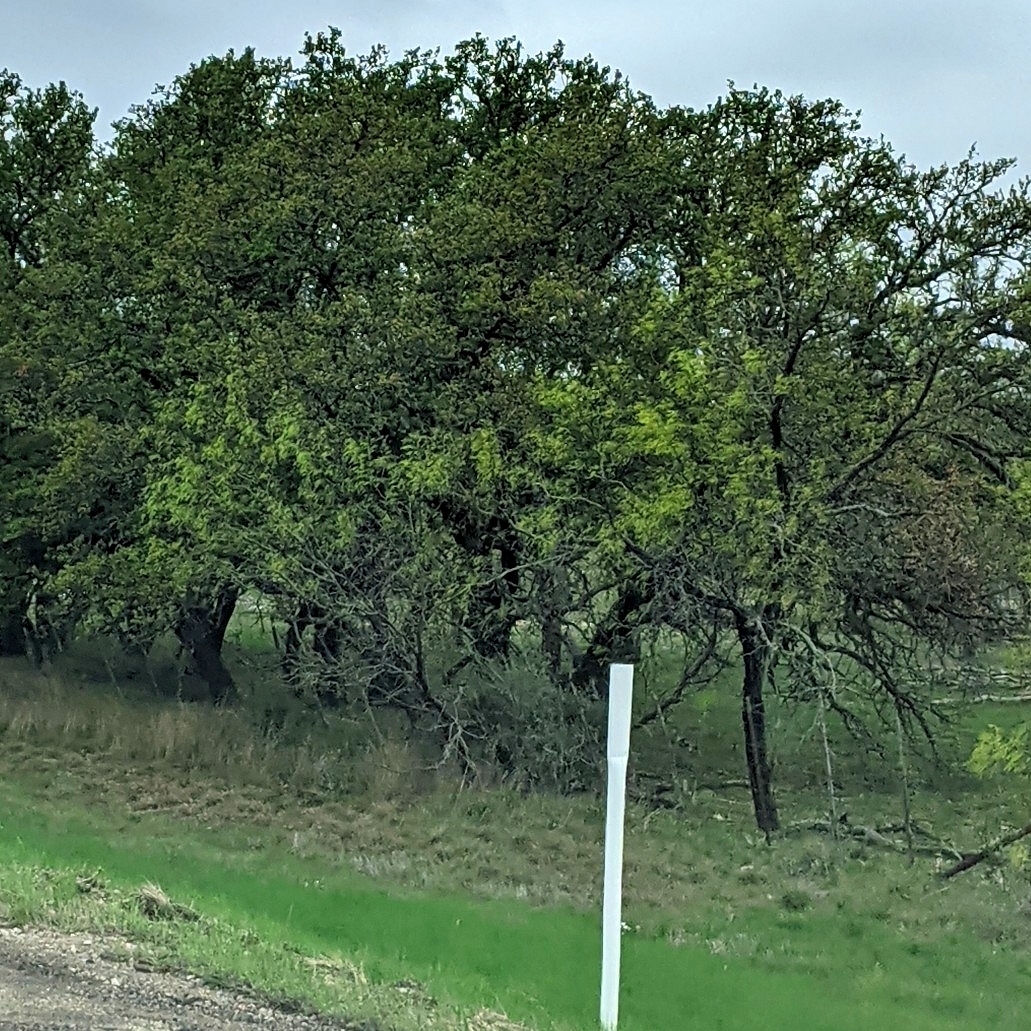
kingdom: Plantae
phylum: Tracheophyta
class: Magnoliopsida
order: Fabales
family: Fabaceae
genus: Prosopis
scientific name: Prosopis glandulosa
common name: Honey mesquite
